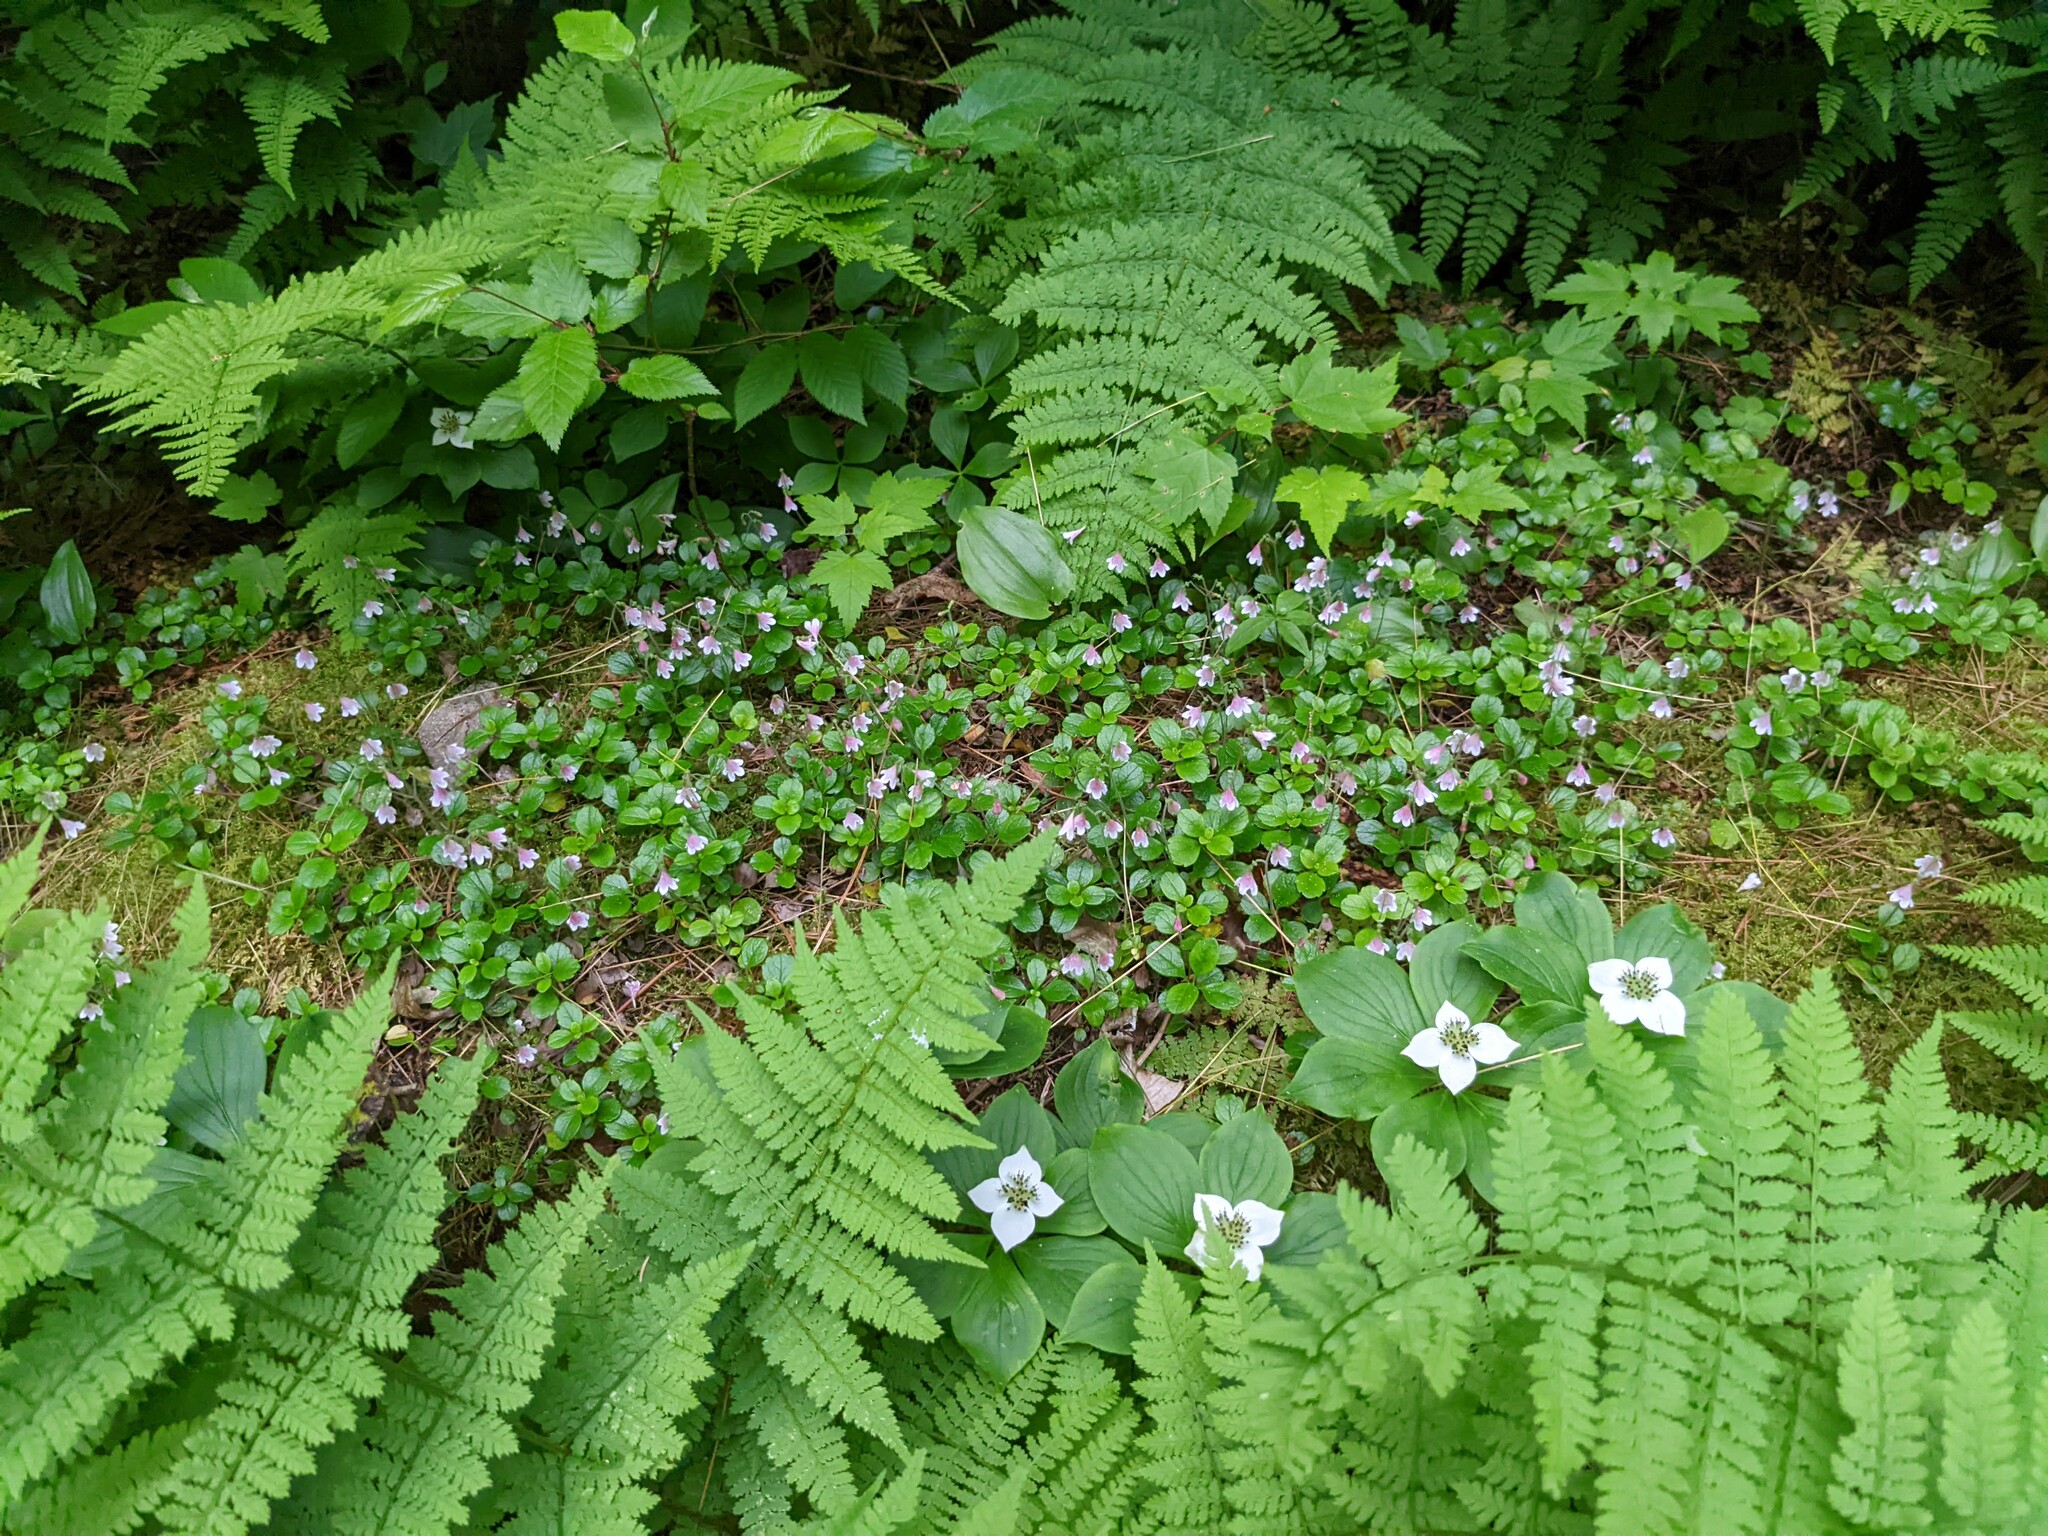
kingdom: Plantae
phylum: Tracheophyta
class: Magnoliopsida
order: Dipsacales
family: Caprifoliaceae
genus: Linnaea
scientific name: Linnaea borealis
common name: Twinflower
